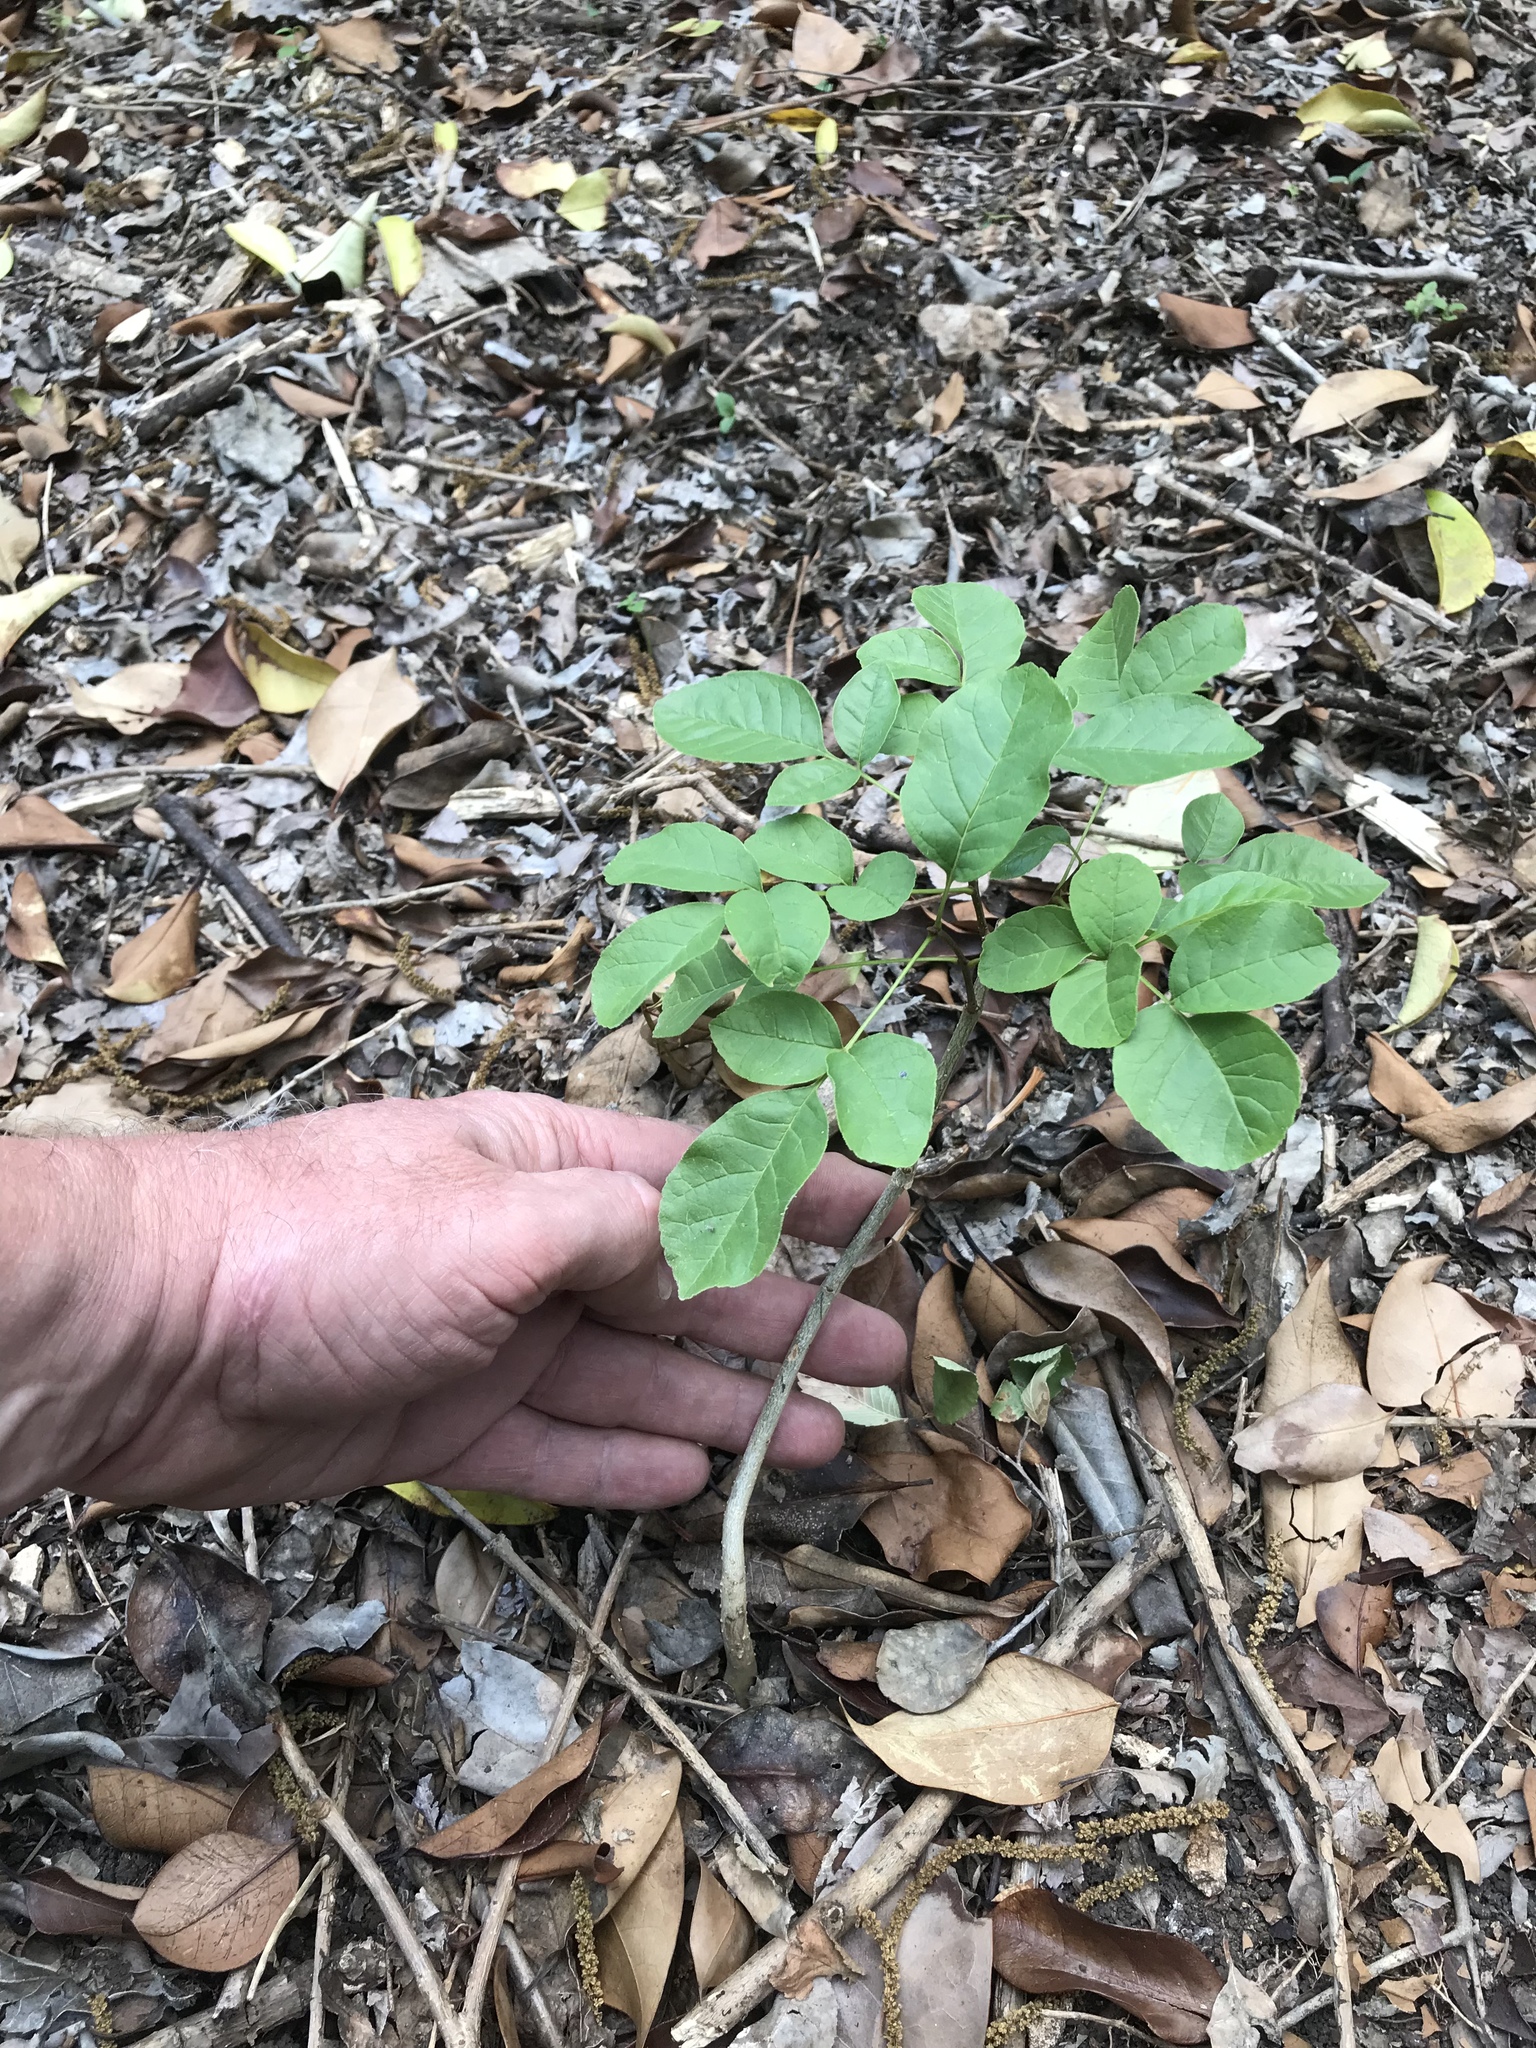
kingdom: Plantae
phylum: Tracheophyta
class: Magnoliopsida
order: Lamiales
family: Oleaceae
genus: Fraxinus
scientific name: Fraxinus albicans
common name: Texas ash
